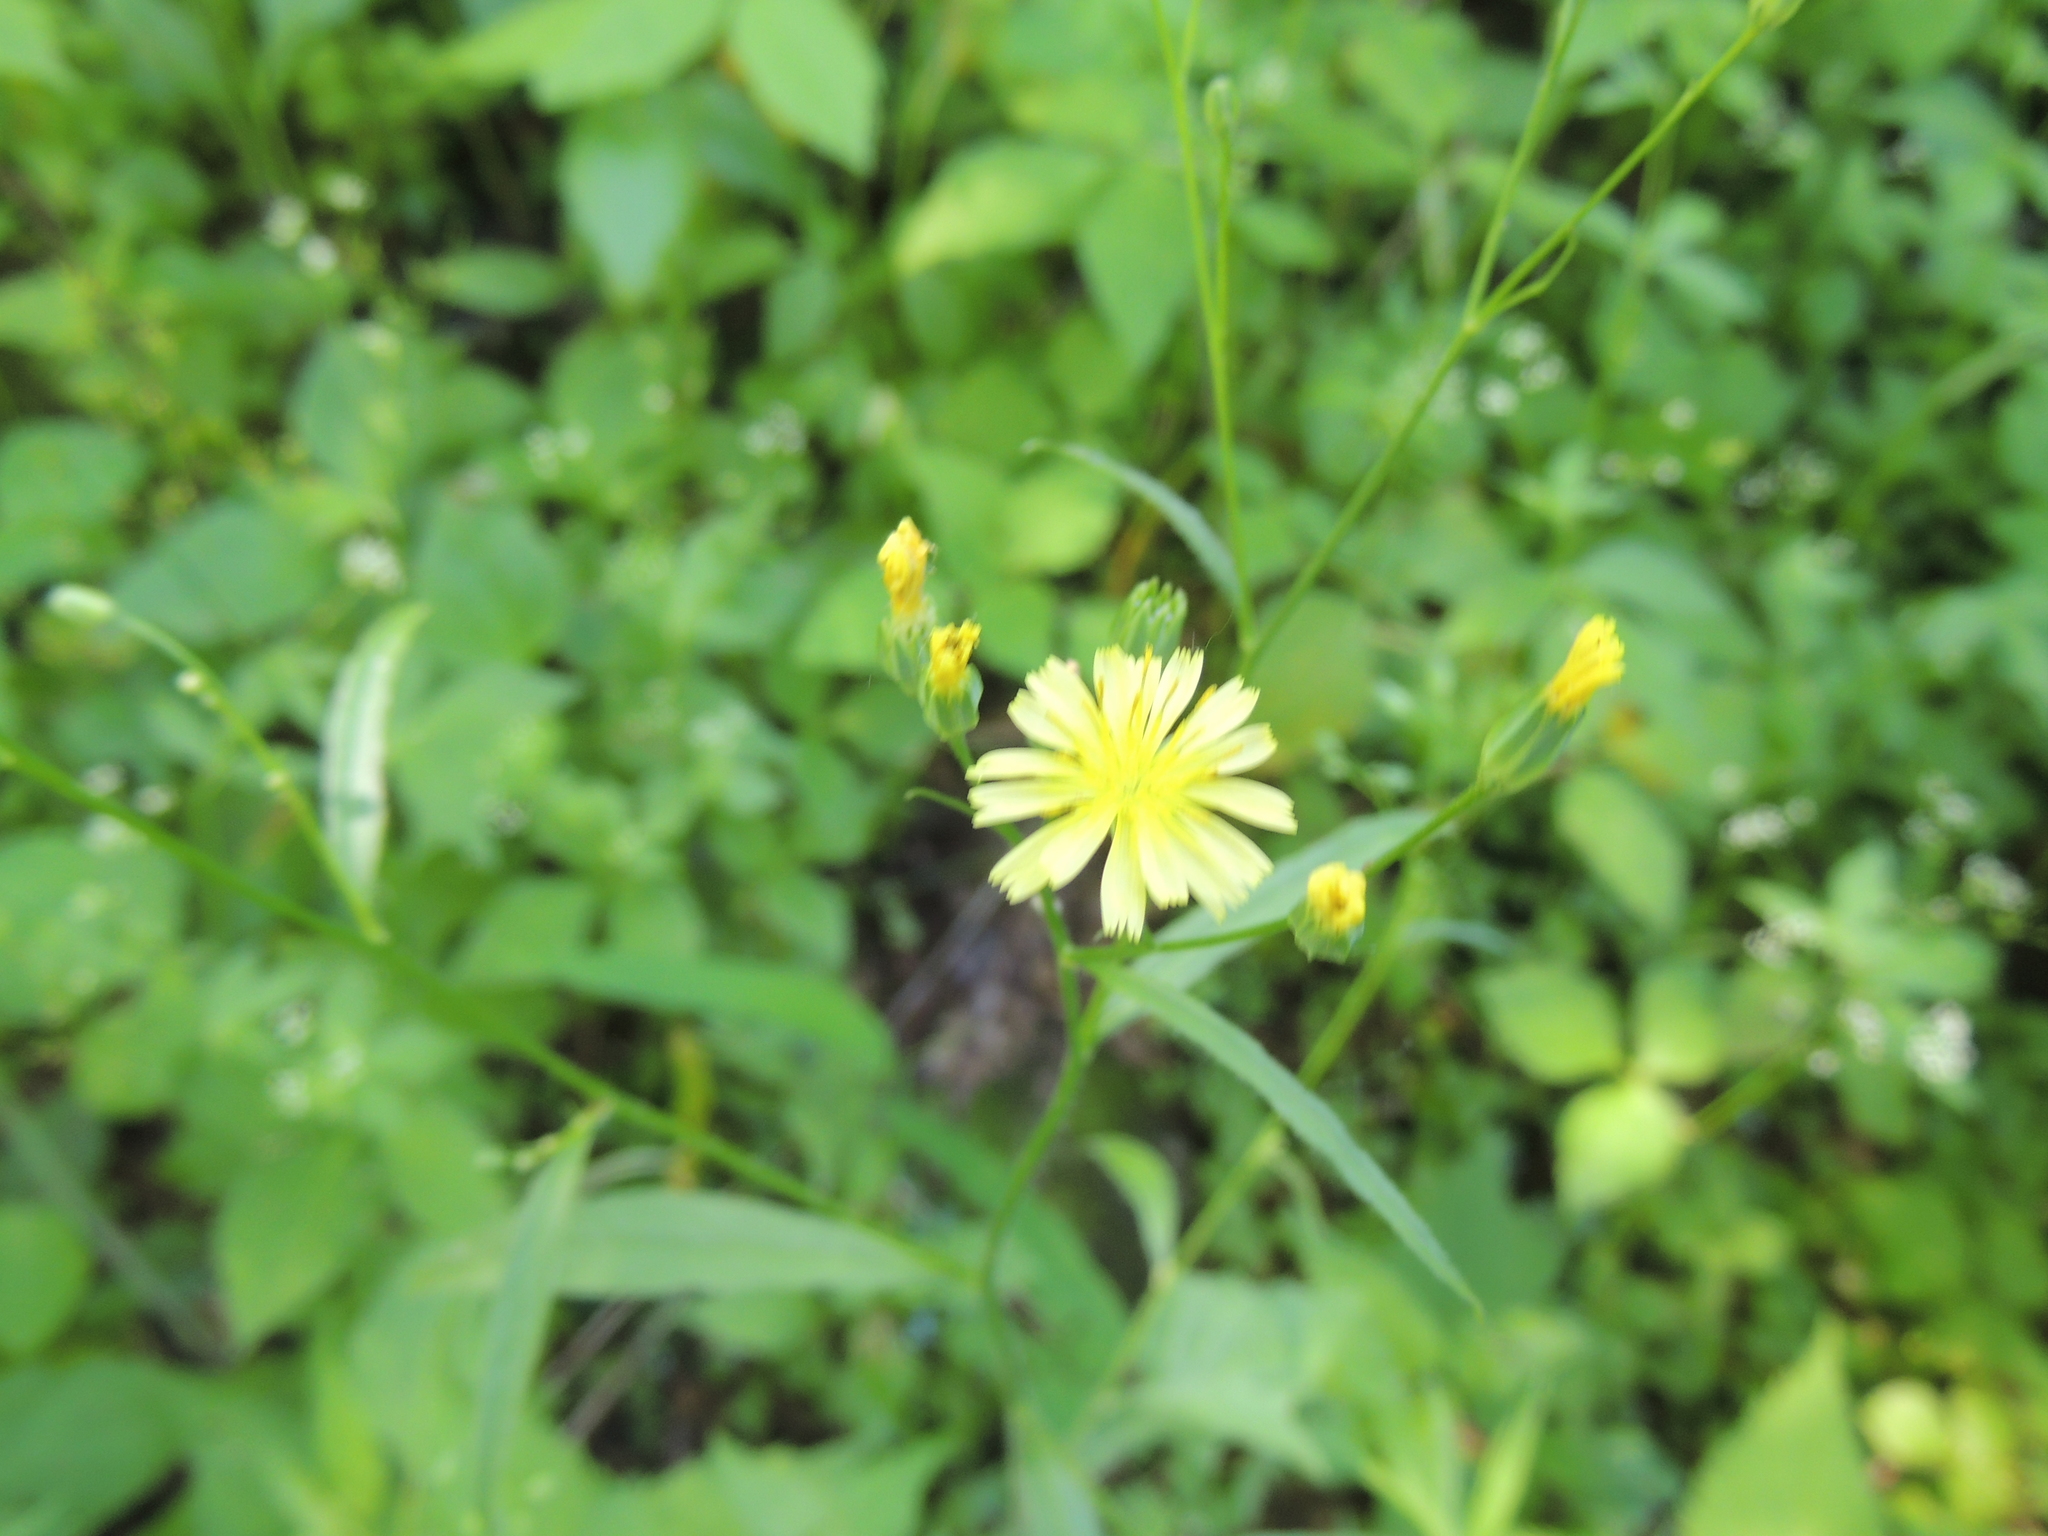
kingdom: Plantae
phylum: Tracheophyta
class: Magnoliopsida
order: Asterales
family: Asteraceae
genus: Lapsana
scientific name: Lapsana communis
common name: Nipplewort
